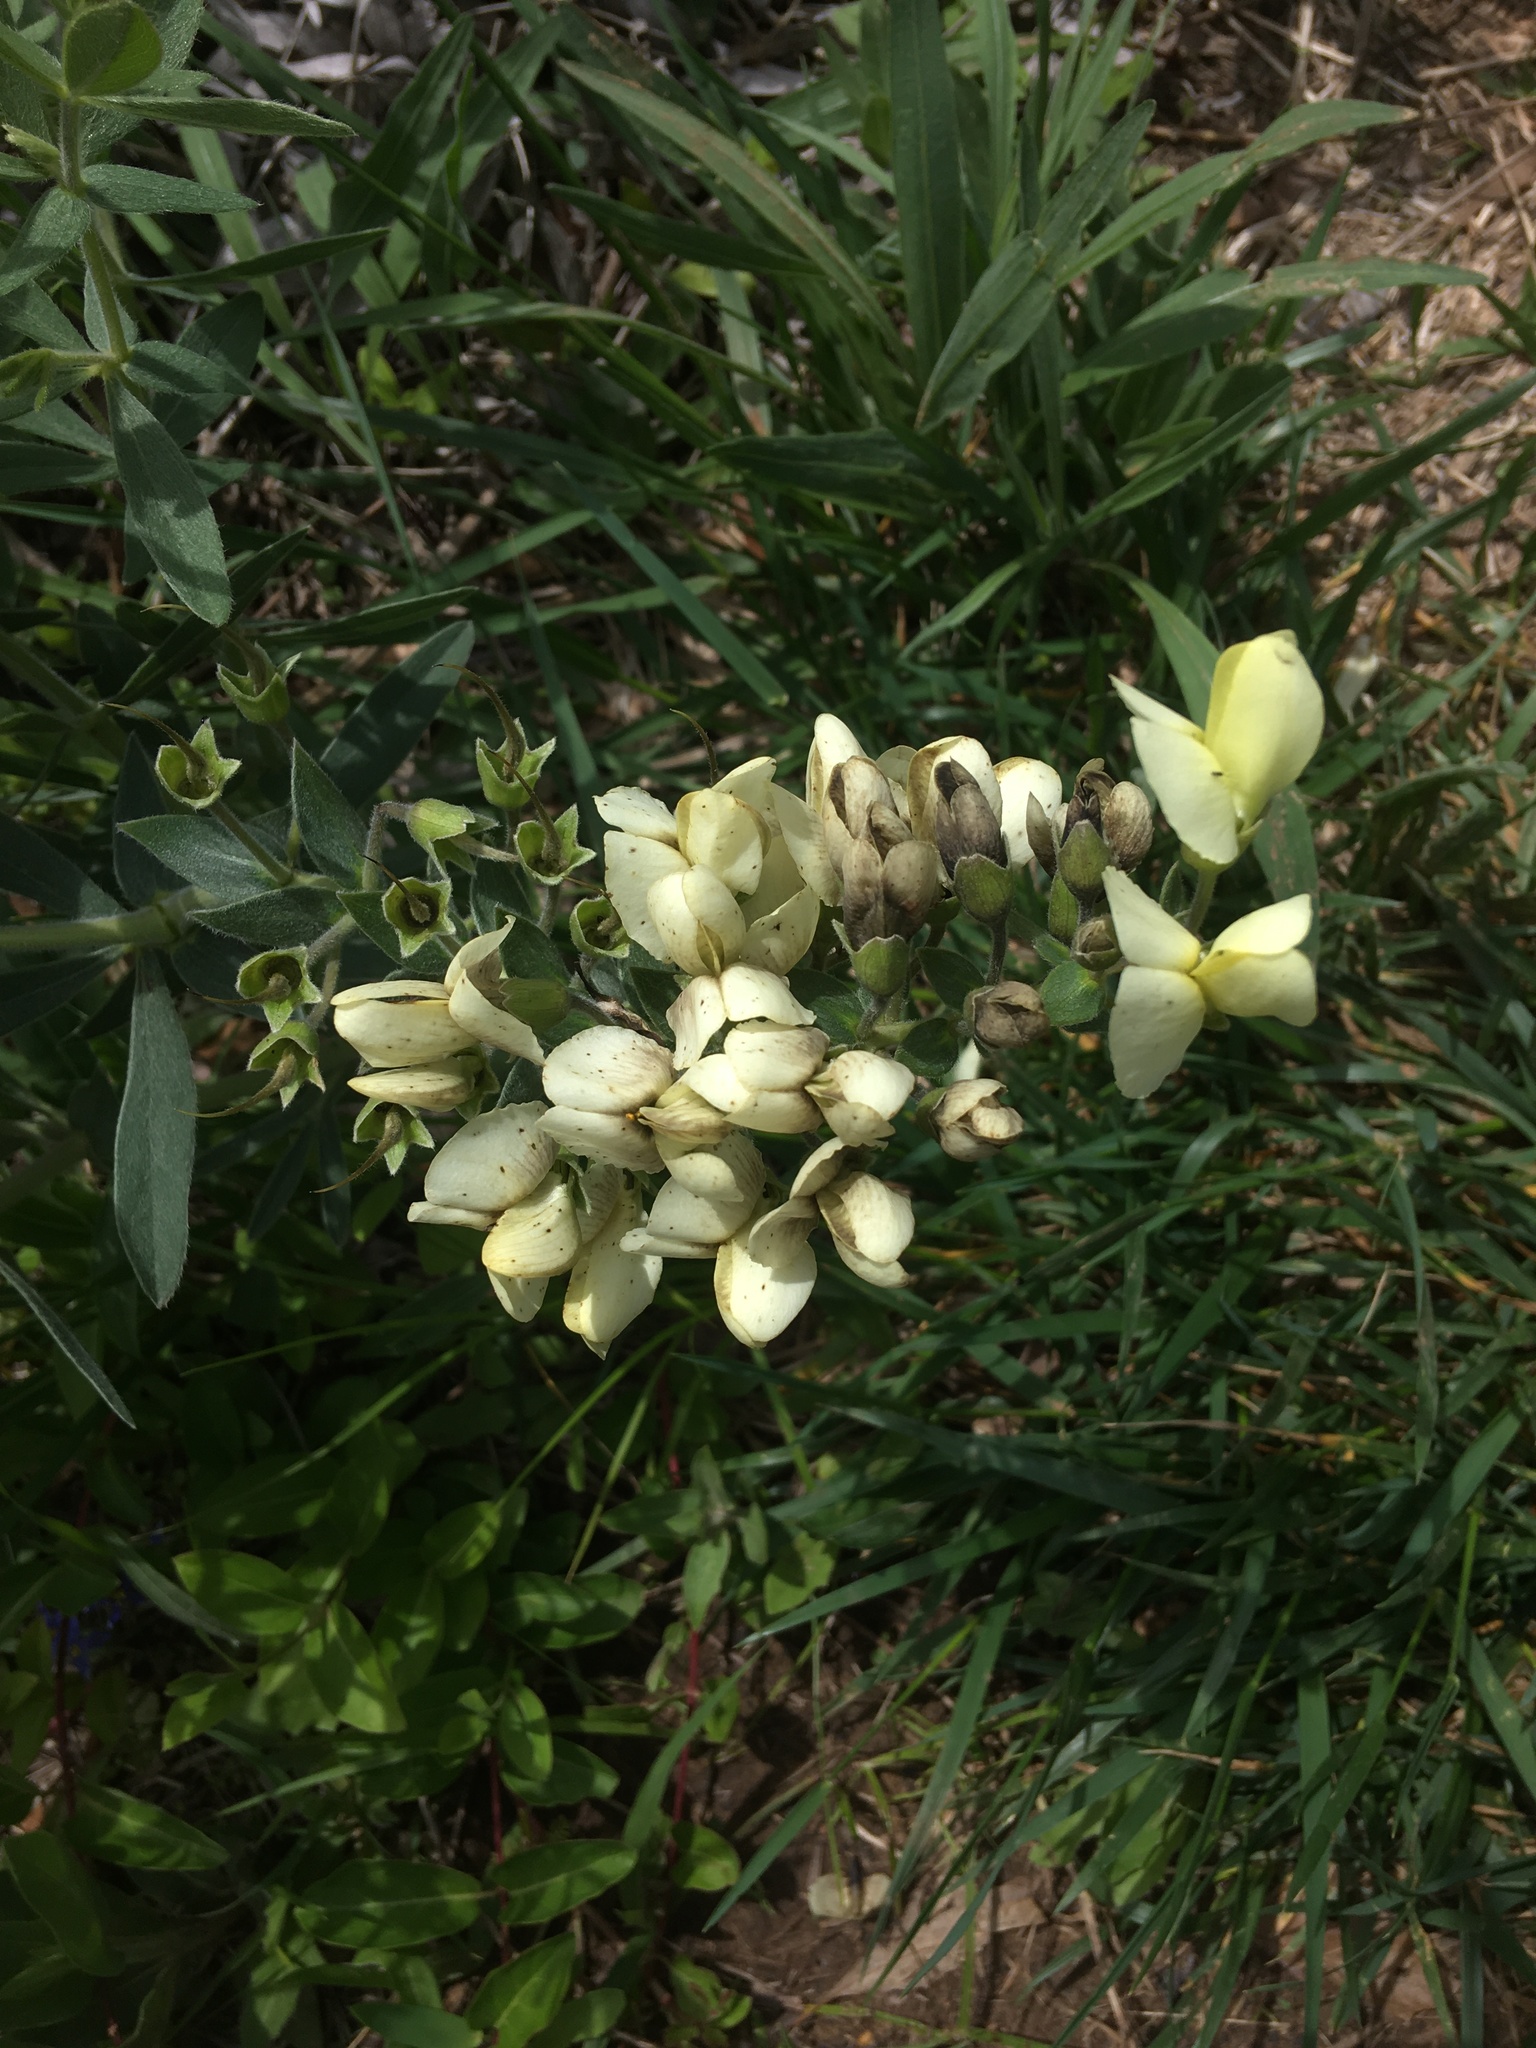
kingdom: Plantae
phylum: Tracheophyta
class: Magnoliopsida
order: Fabales
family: Fabaceae
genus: Baptisia
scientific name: Baptisia bracteata
